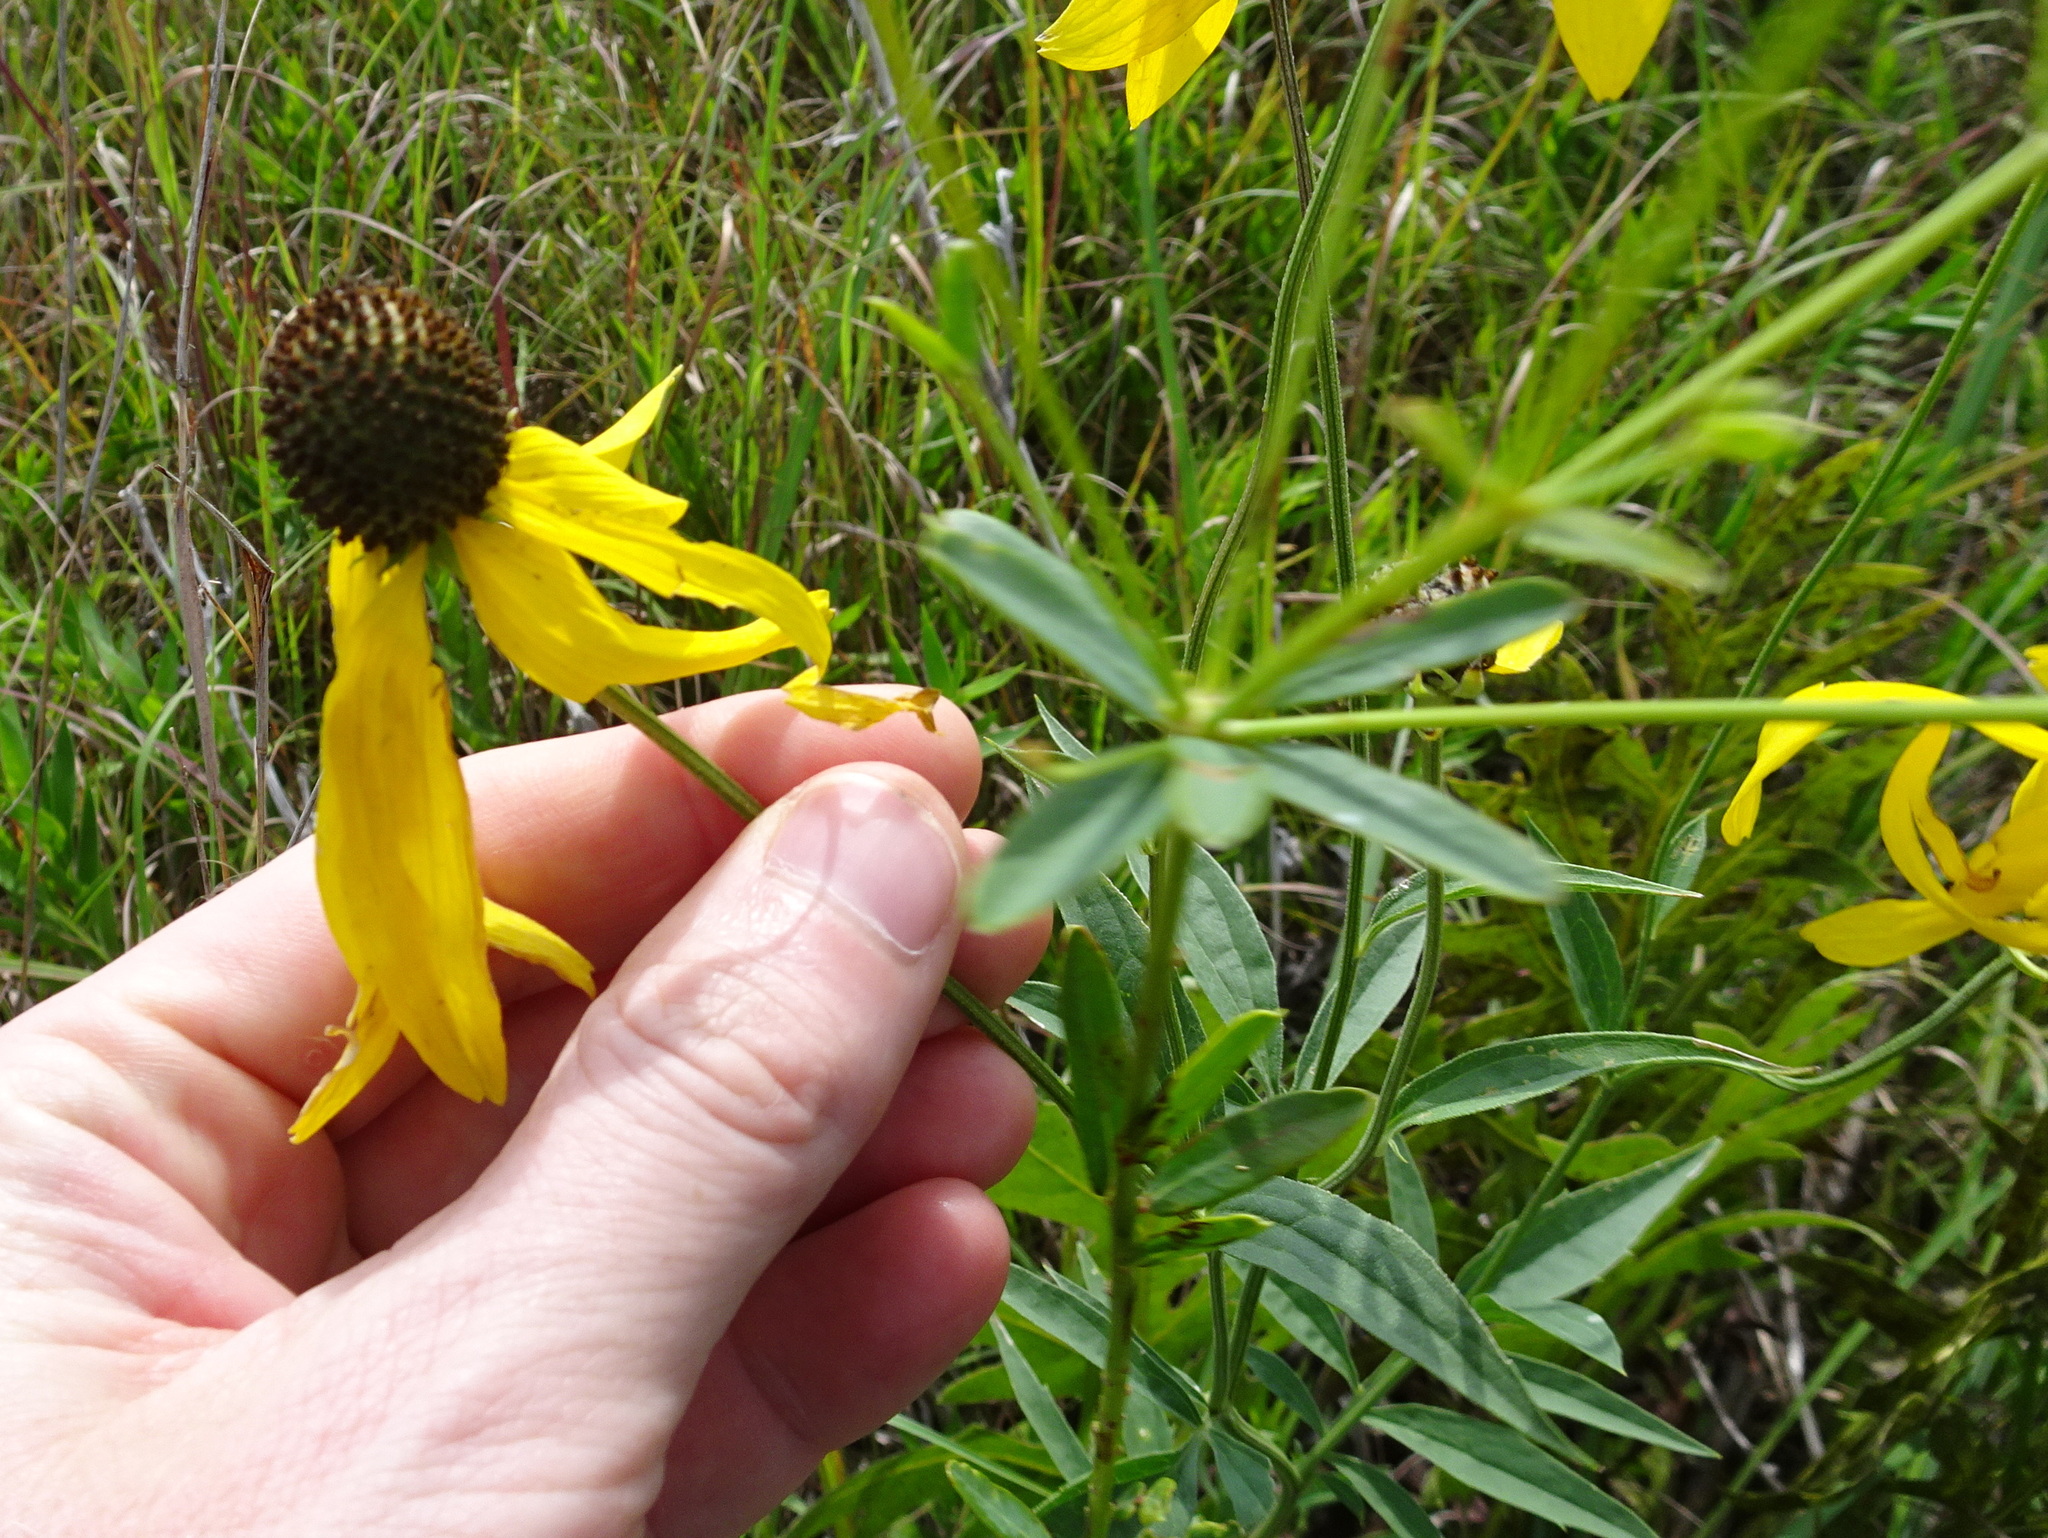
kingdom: Plantae
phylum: Tracheophyta
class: Magnoliopsida
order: Asterales
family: Asteraceae
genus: Ratibida
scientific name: Ratibida pinnata
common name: Drooping prairie-coneflower
